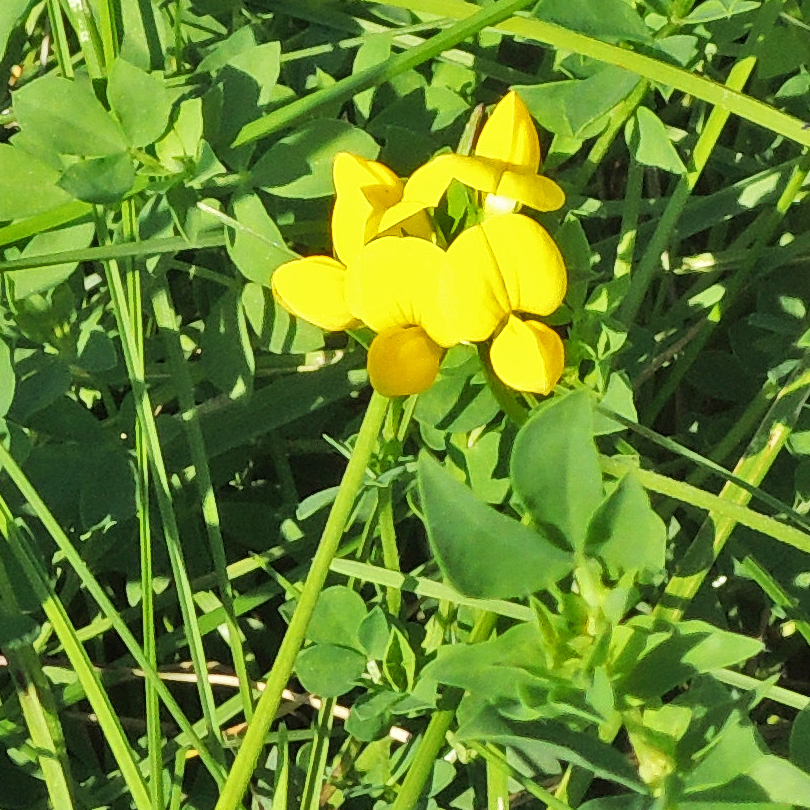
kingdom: Plantae
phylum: Tracheophyta
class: Magnoliopsida
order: Fabales
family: Fabaceae
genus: Lotus
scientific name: Lotus corniculatus
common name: Common bird's-foot-trefoil
